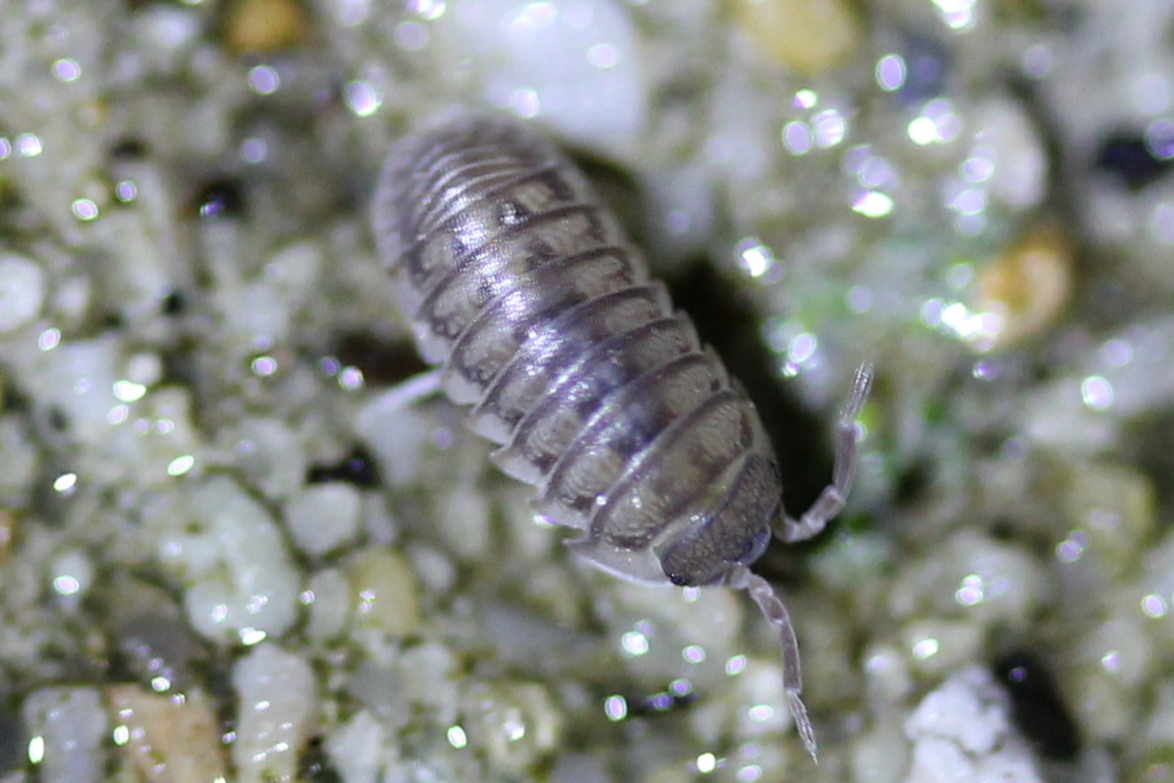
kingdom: Animalia
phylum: Arthropoda
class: Malacostraca
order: Isopoda
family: Armadillidiidae
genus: Armadillidium
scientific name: Armadillidium nasatum
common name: Isopod
